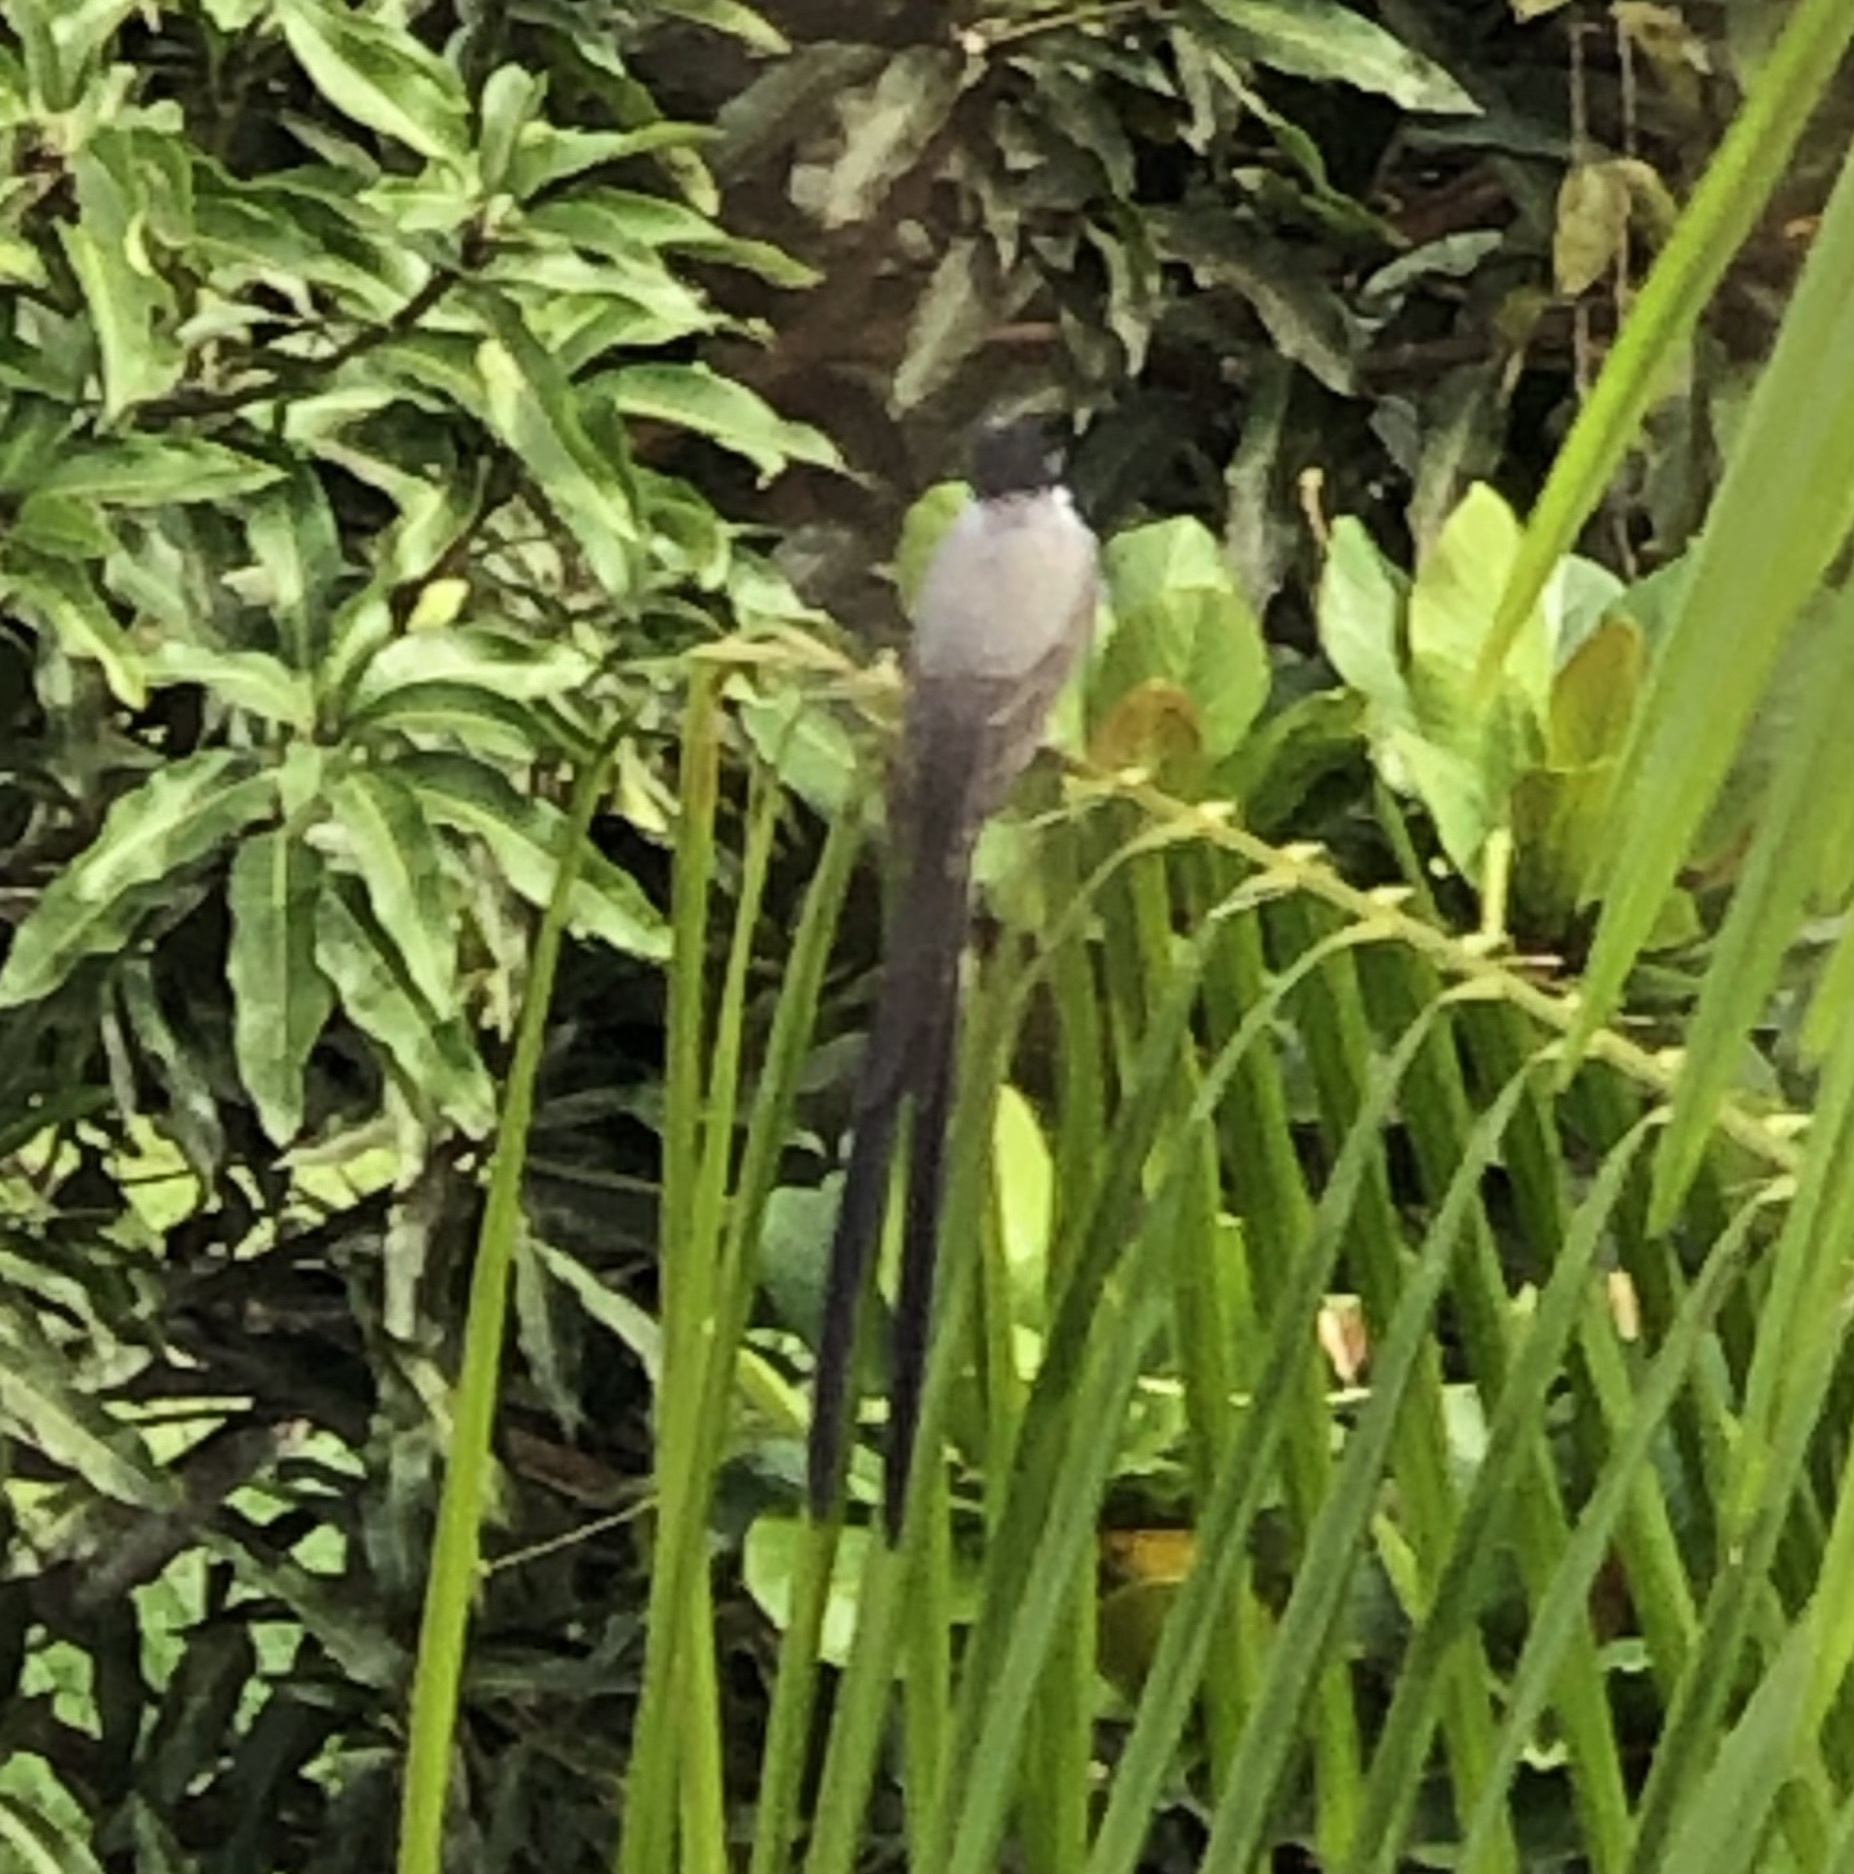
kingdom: Animalia
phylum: Chordata
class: Aves
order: Passeriformes
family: Tyrannidae
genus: Tyrannus
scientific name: Tyrannus savana
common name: Fork-tailed flycatcher
